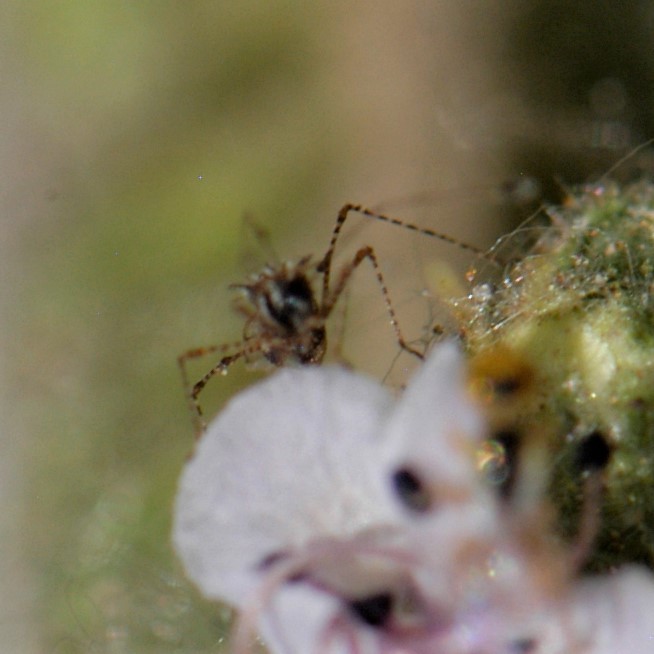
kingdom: Animalia
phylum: Arthropoda
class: Insecta
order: Hemiptera
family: Berytidae
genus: Pronotacantha
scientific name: Pronotacantha annulata
